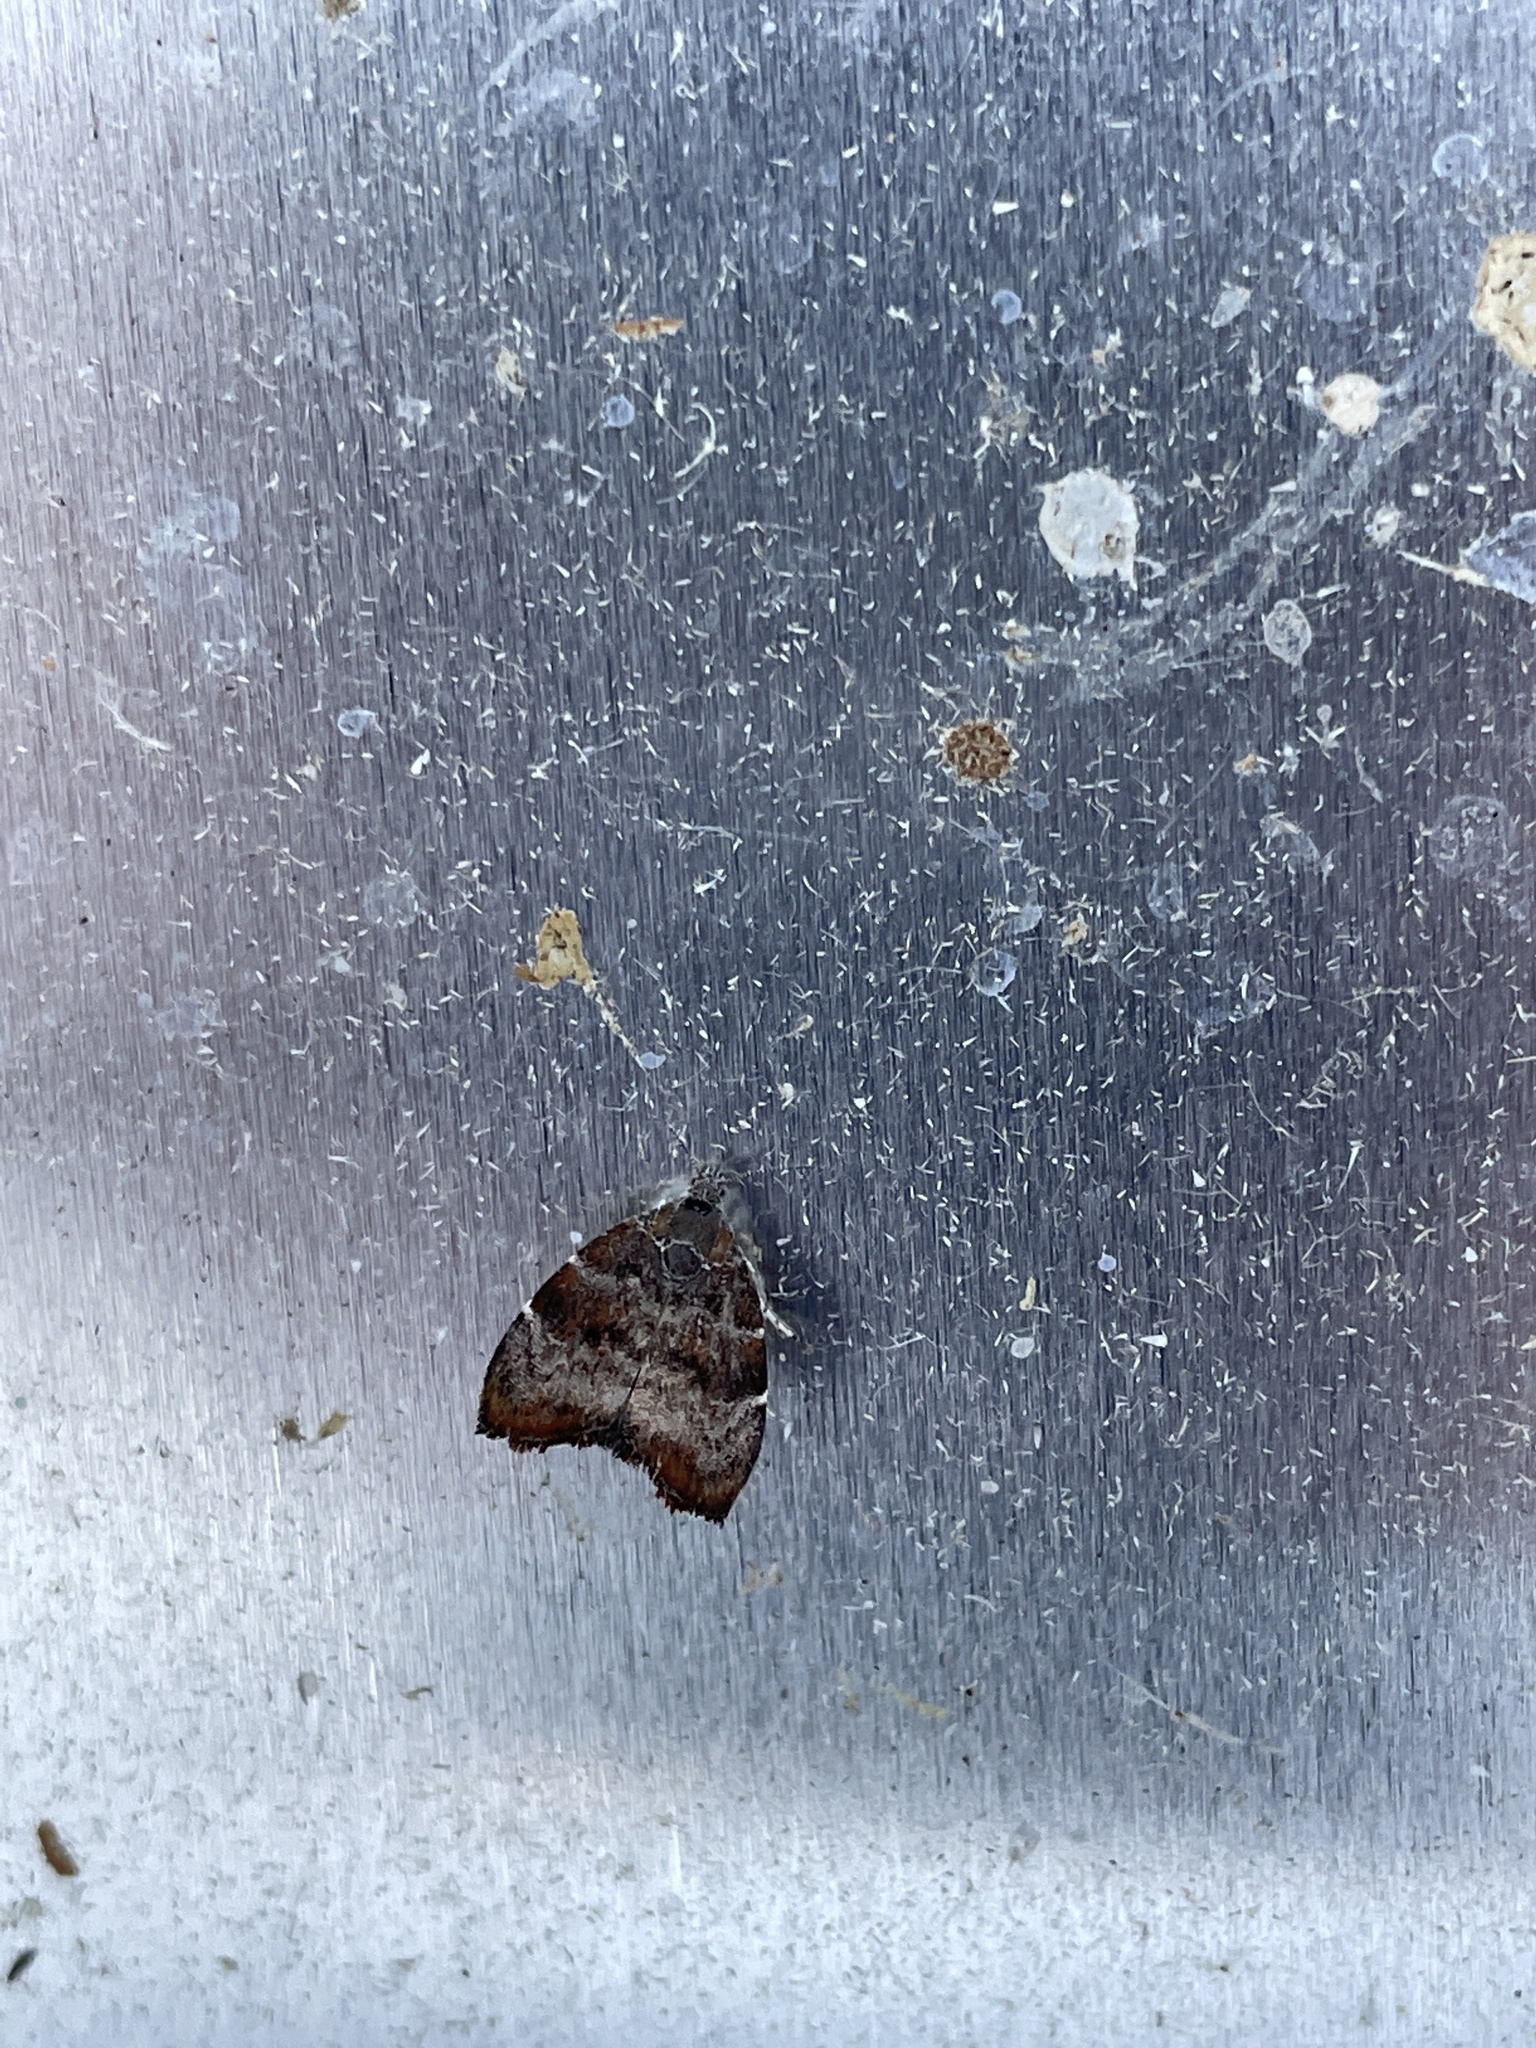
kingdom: Animalia
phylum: Arthropoda
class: Insecta
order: Lepidoptera
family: Choreutidae
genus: Anthophila
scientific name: Anthophila nemorana
